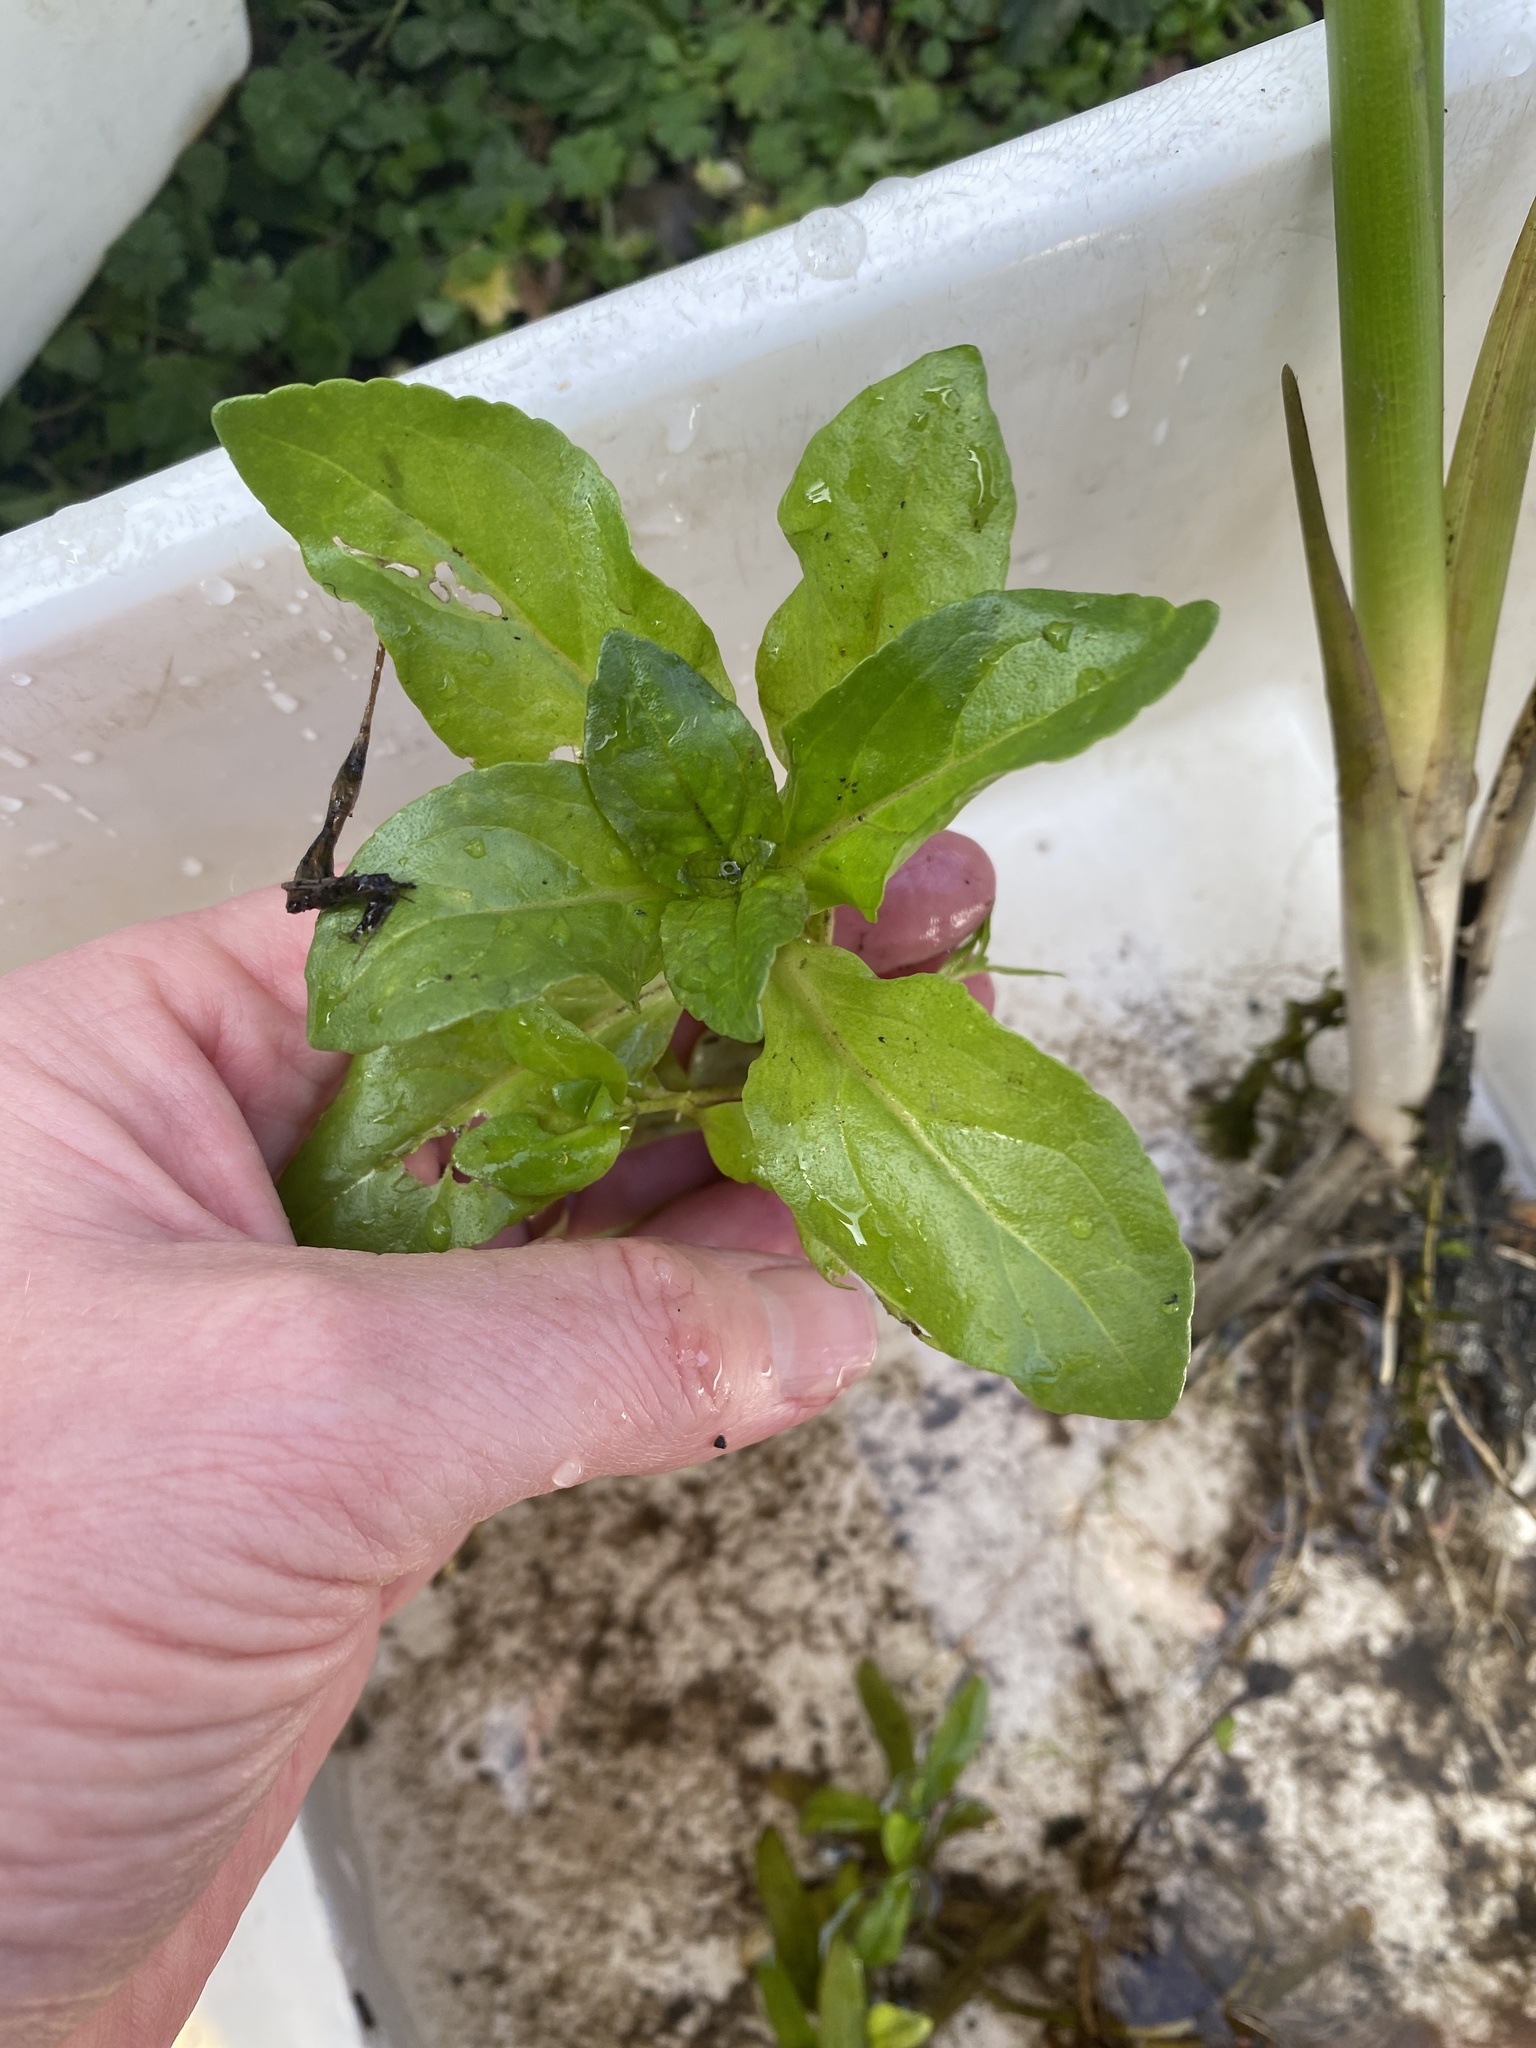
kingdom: Plantae
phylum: Tracheophyta
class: Magnoliopsida
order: Lamiales
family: Plantaginaceae
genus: Veronica
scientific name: Veronica anagallis-aquatica
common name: Water speedwell
